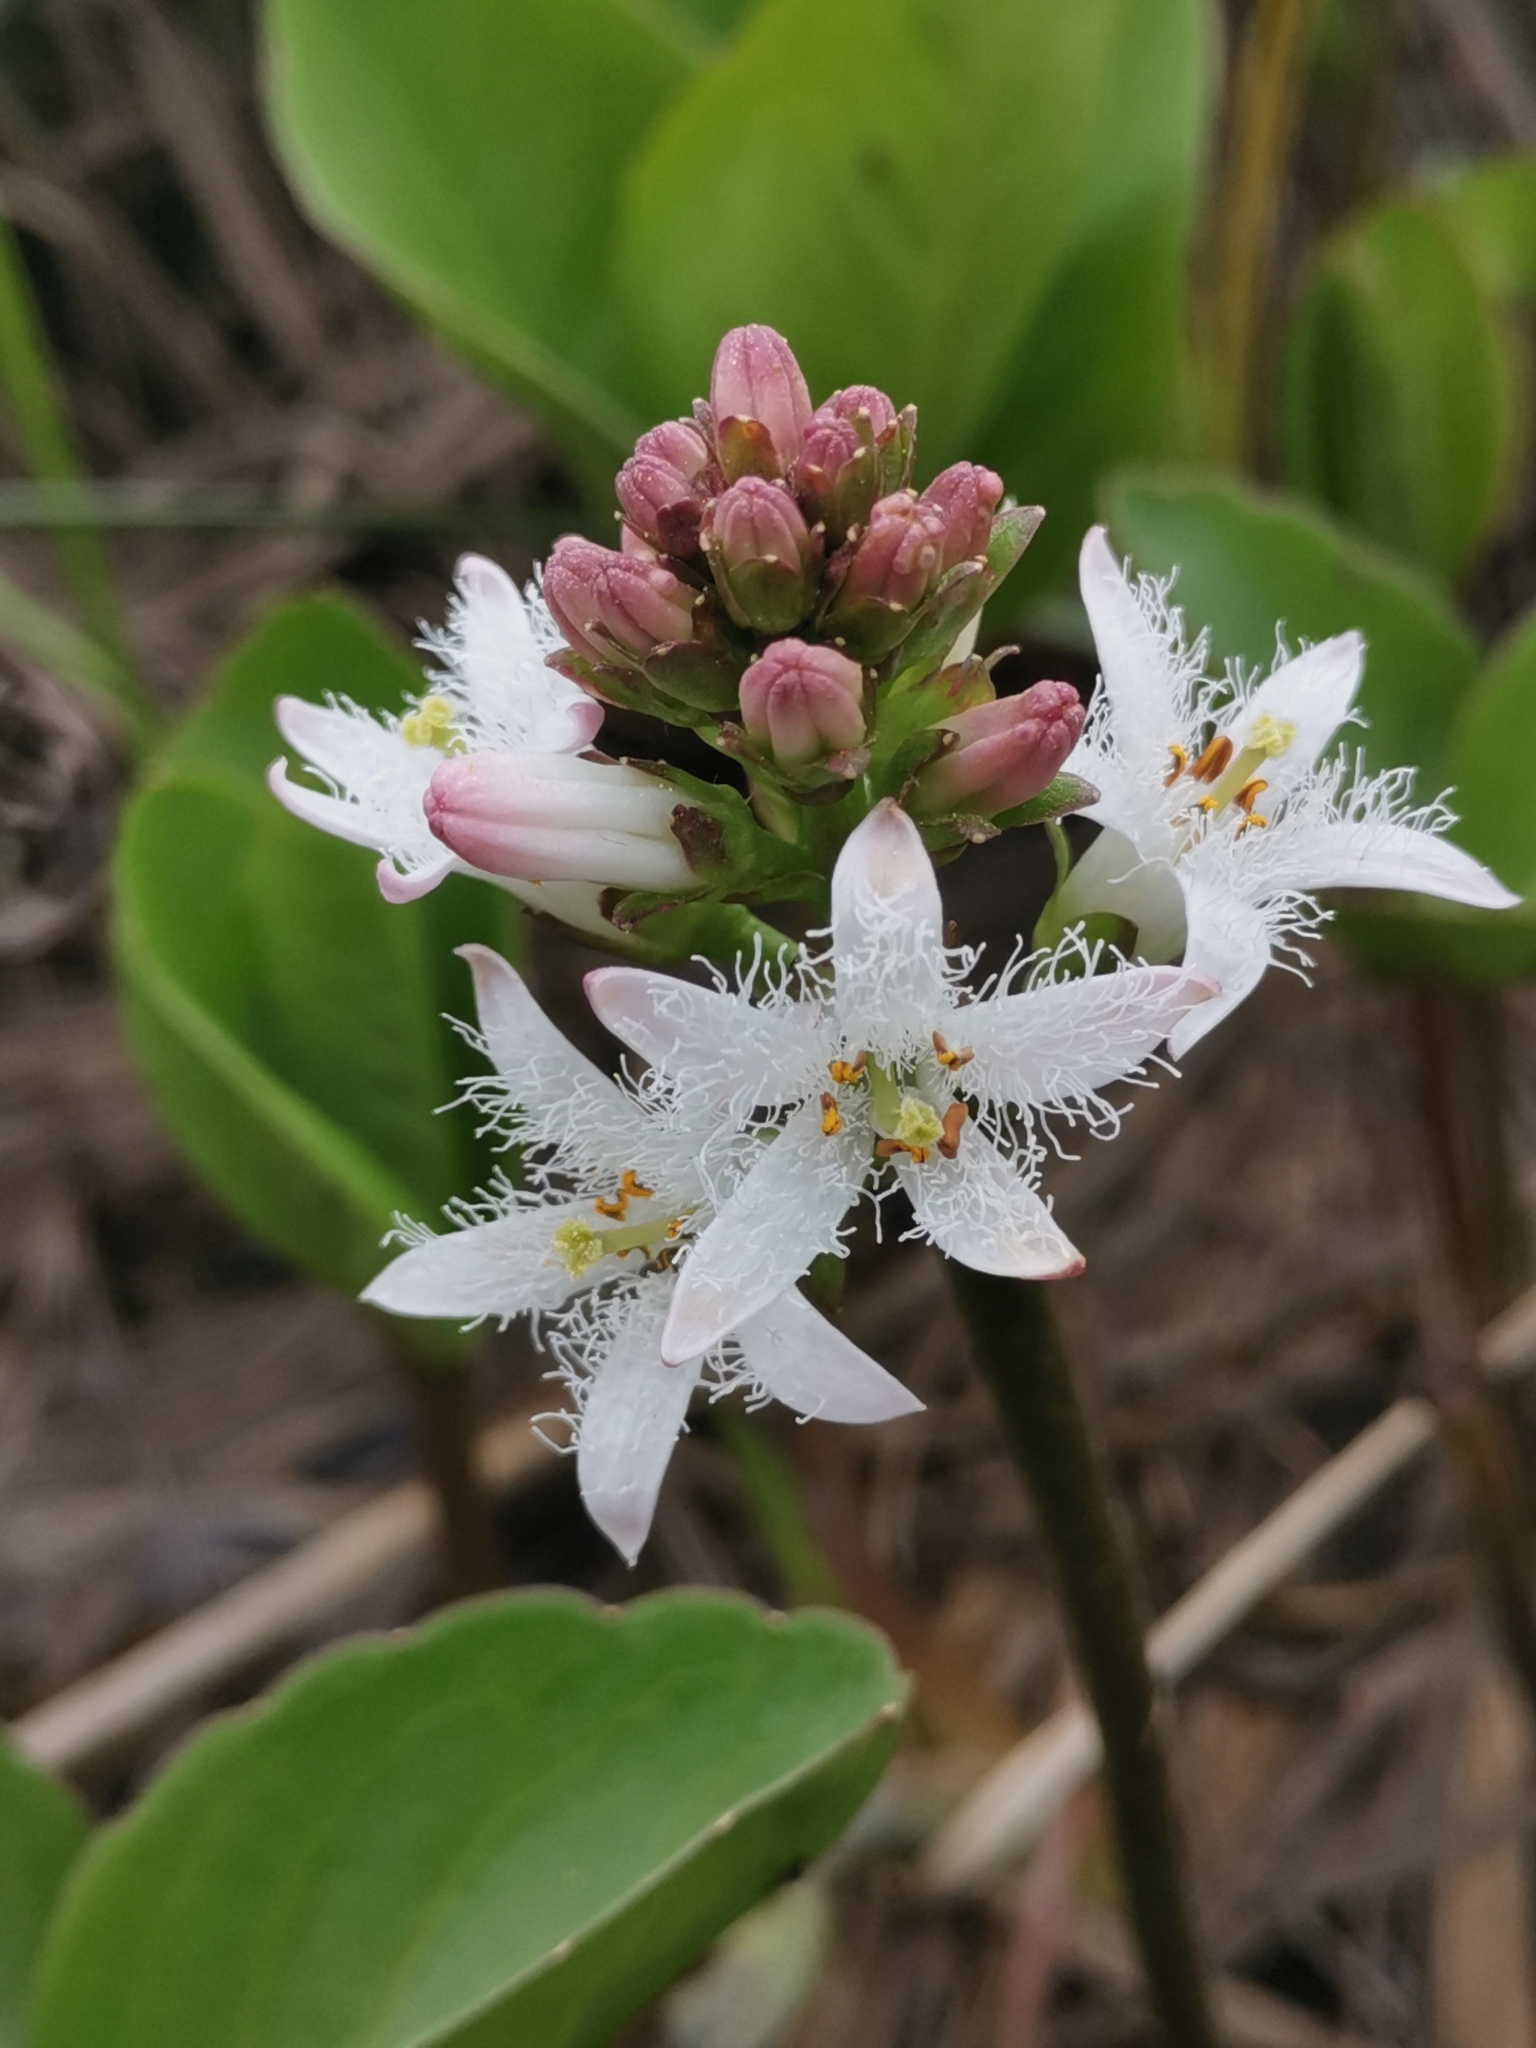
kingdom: Plantae
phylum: Tracheophyta
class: Magnoliopsida
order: Asterales
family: Menyanthaceae
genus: Menyanthes
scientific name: Menyanthes trifoliata
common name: Bogbean
